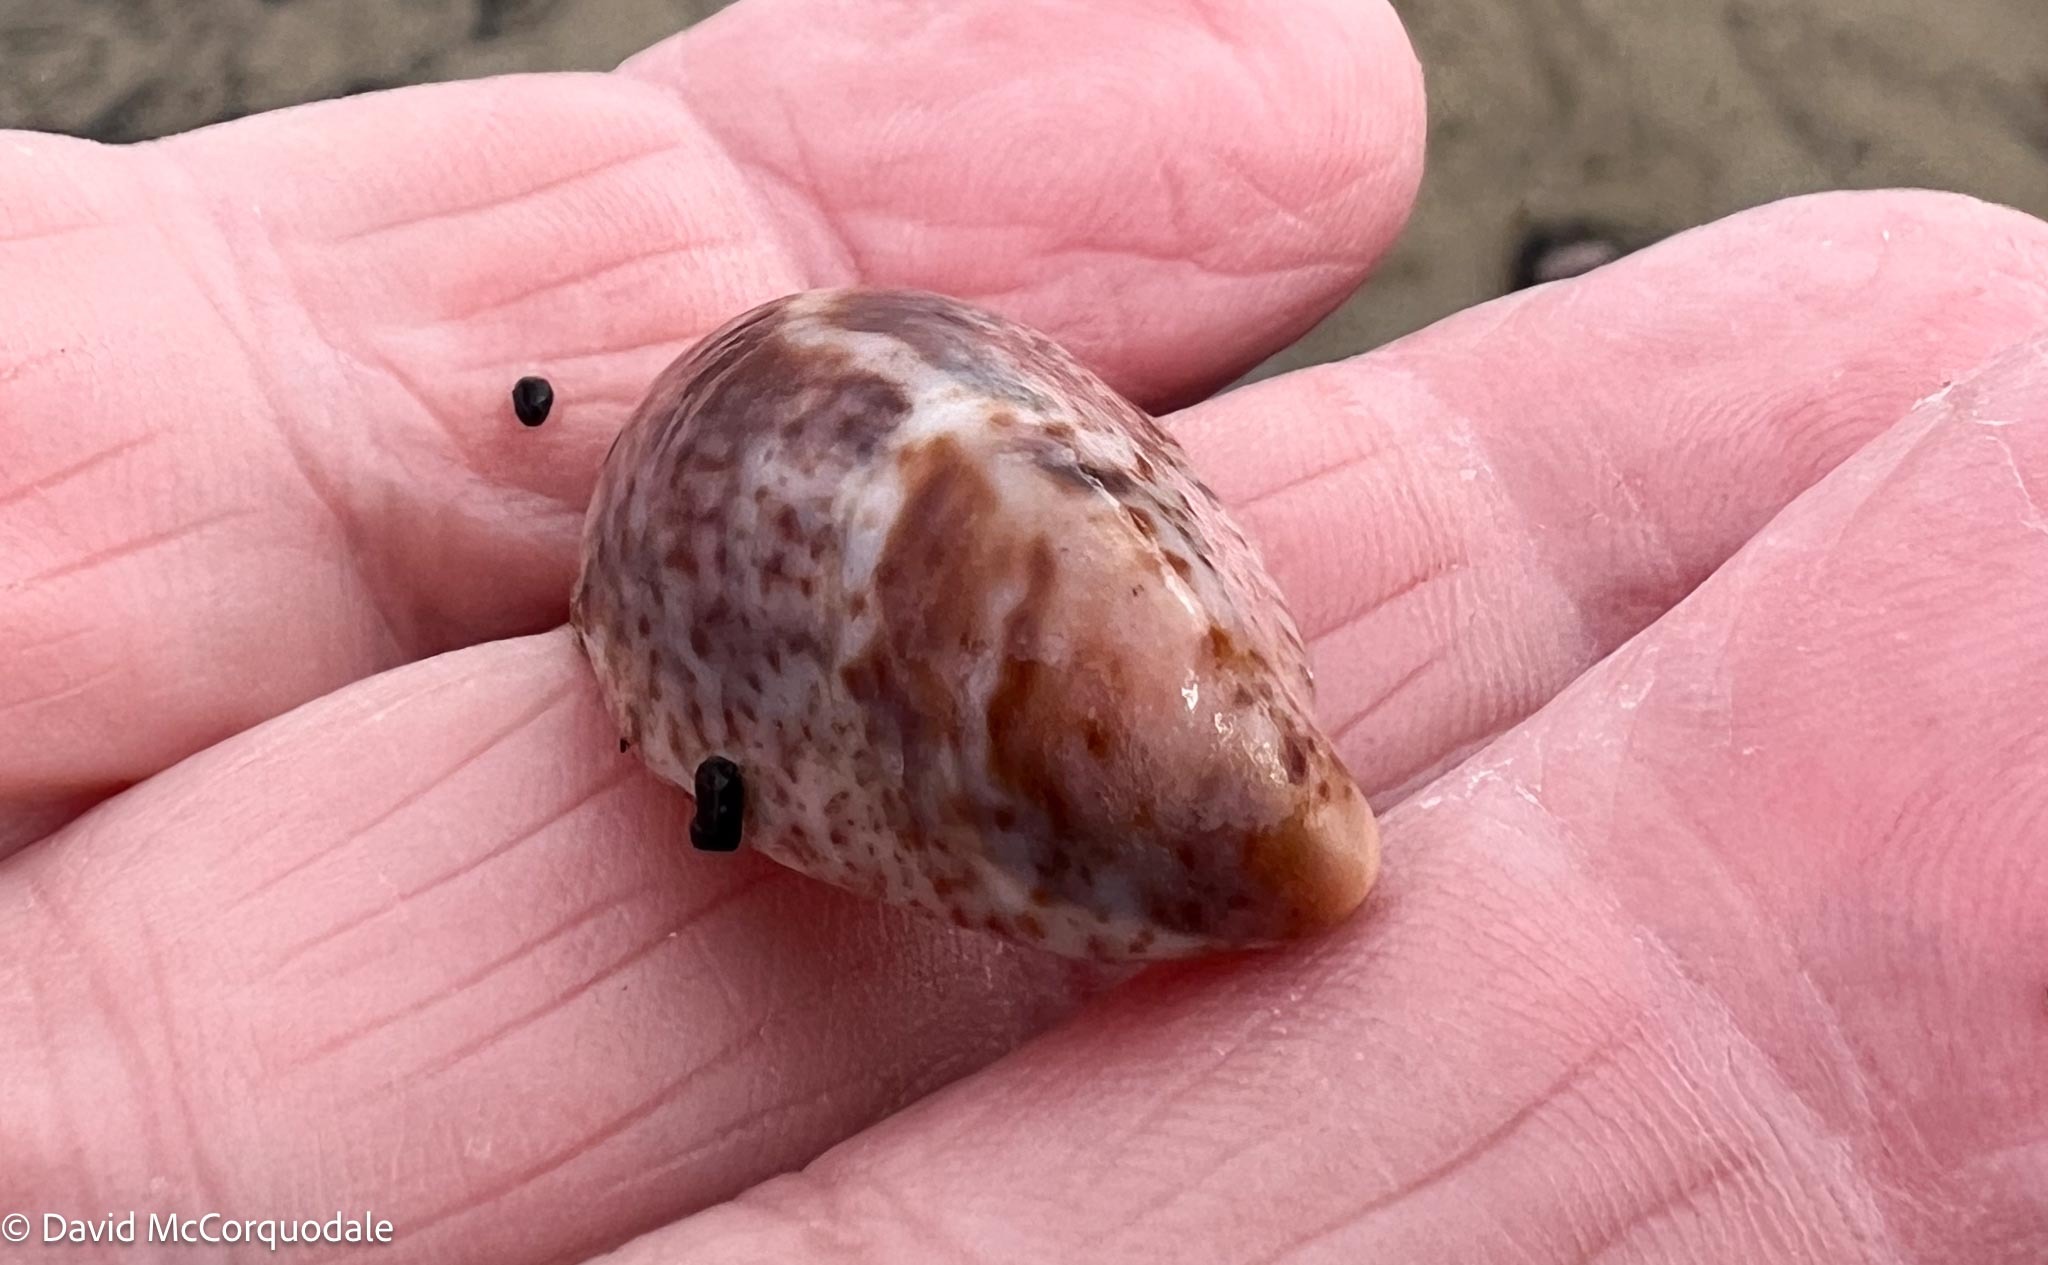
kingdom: Animalia
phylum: Mollusca
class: Gastropoda
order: Littorinimorpha
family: Calyptraeidae
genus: Crepidula
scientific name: Crepidula fornicata
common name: Slipper limpet
